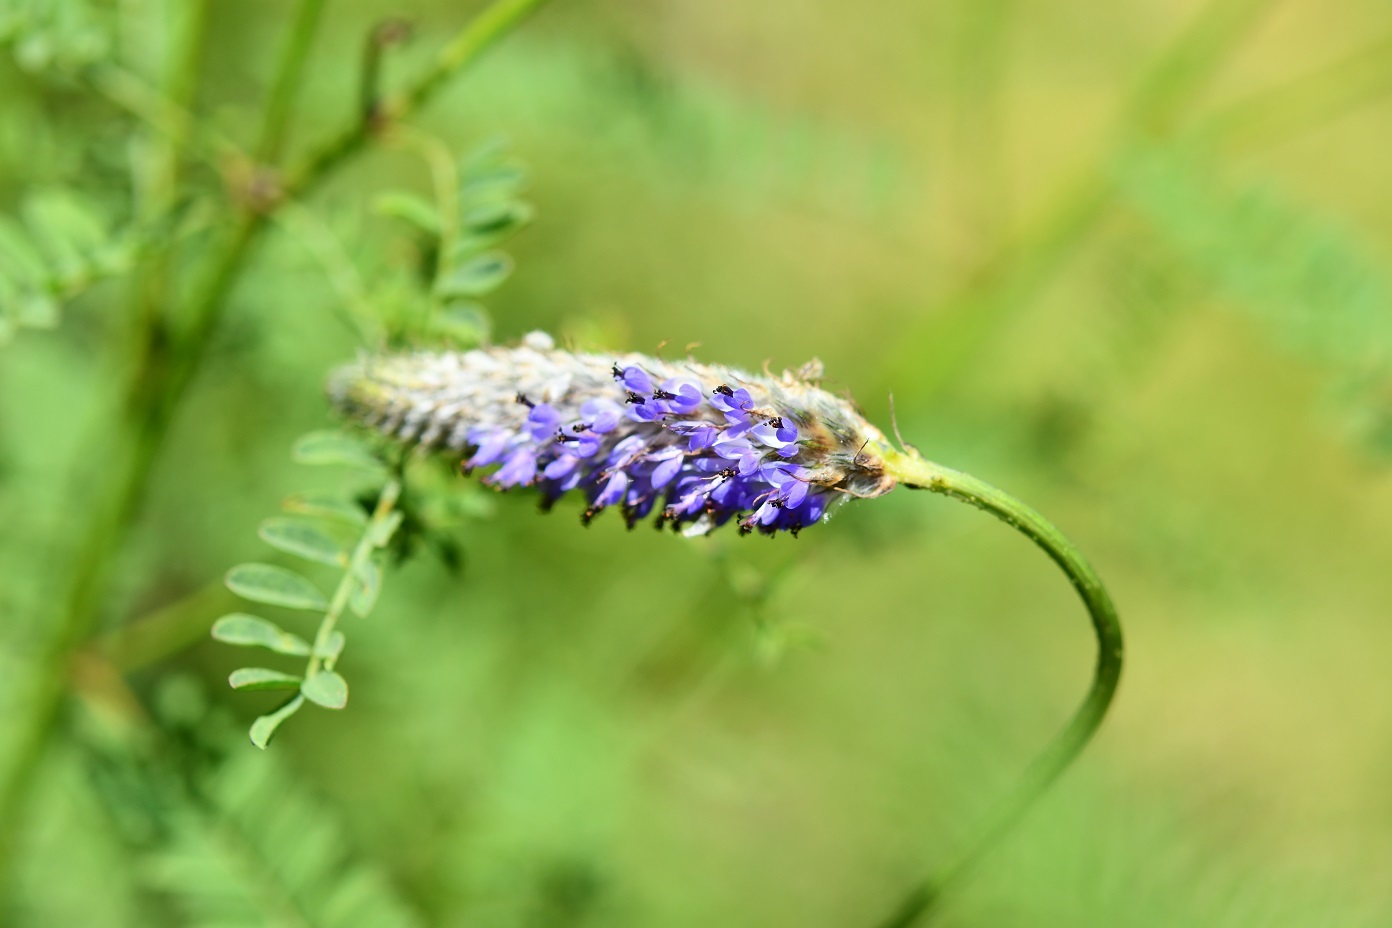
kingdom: Plantae
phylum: Tracheophyta
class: Magnoliopsida
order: Fabales
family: Fabaceae
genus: Dalea
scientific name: Dalea leporina
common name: Foxtail dalea
